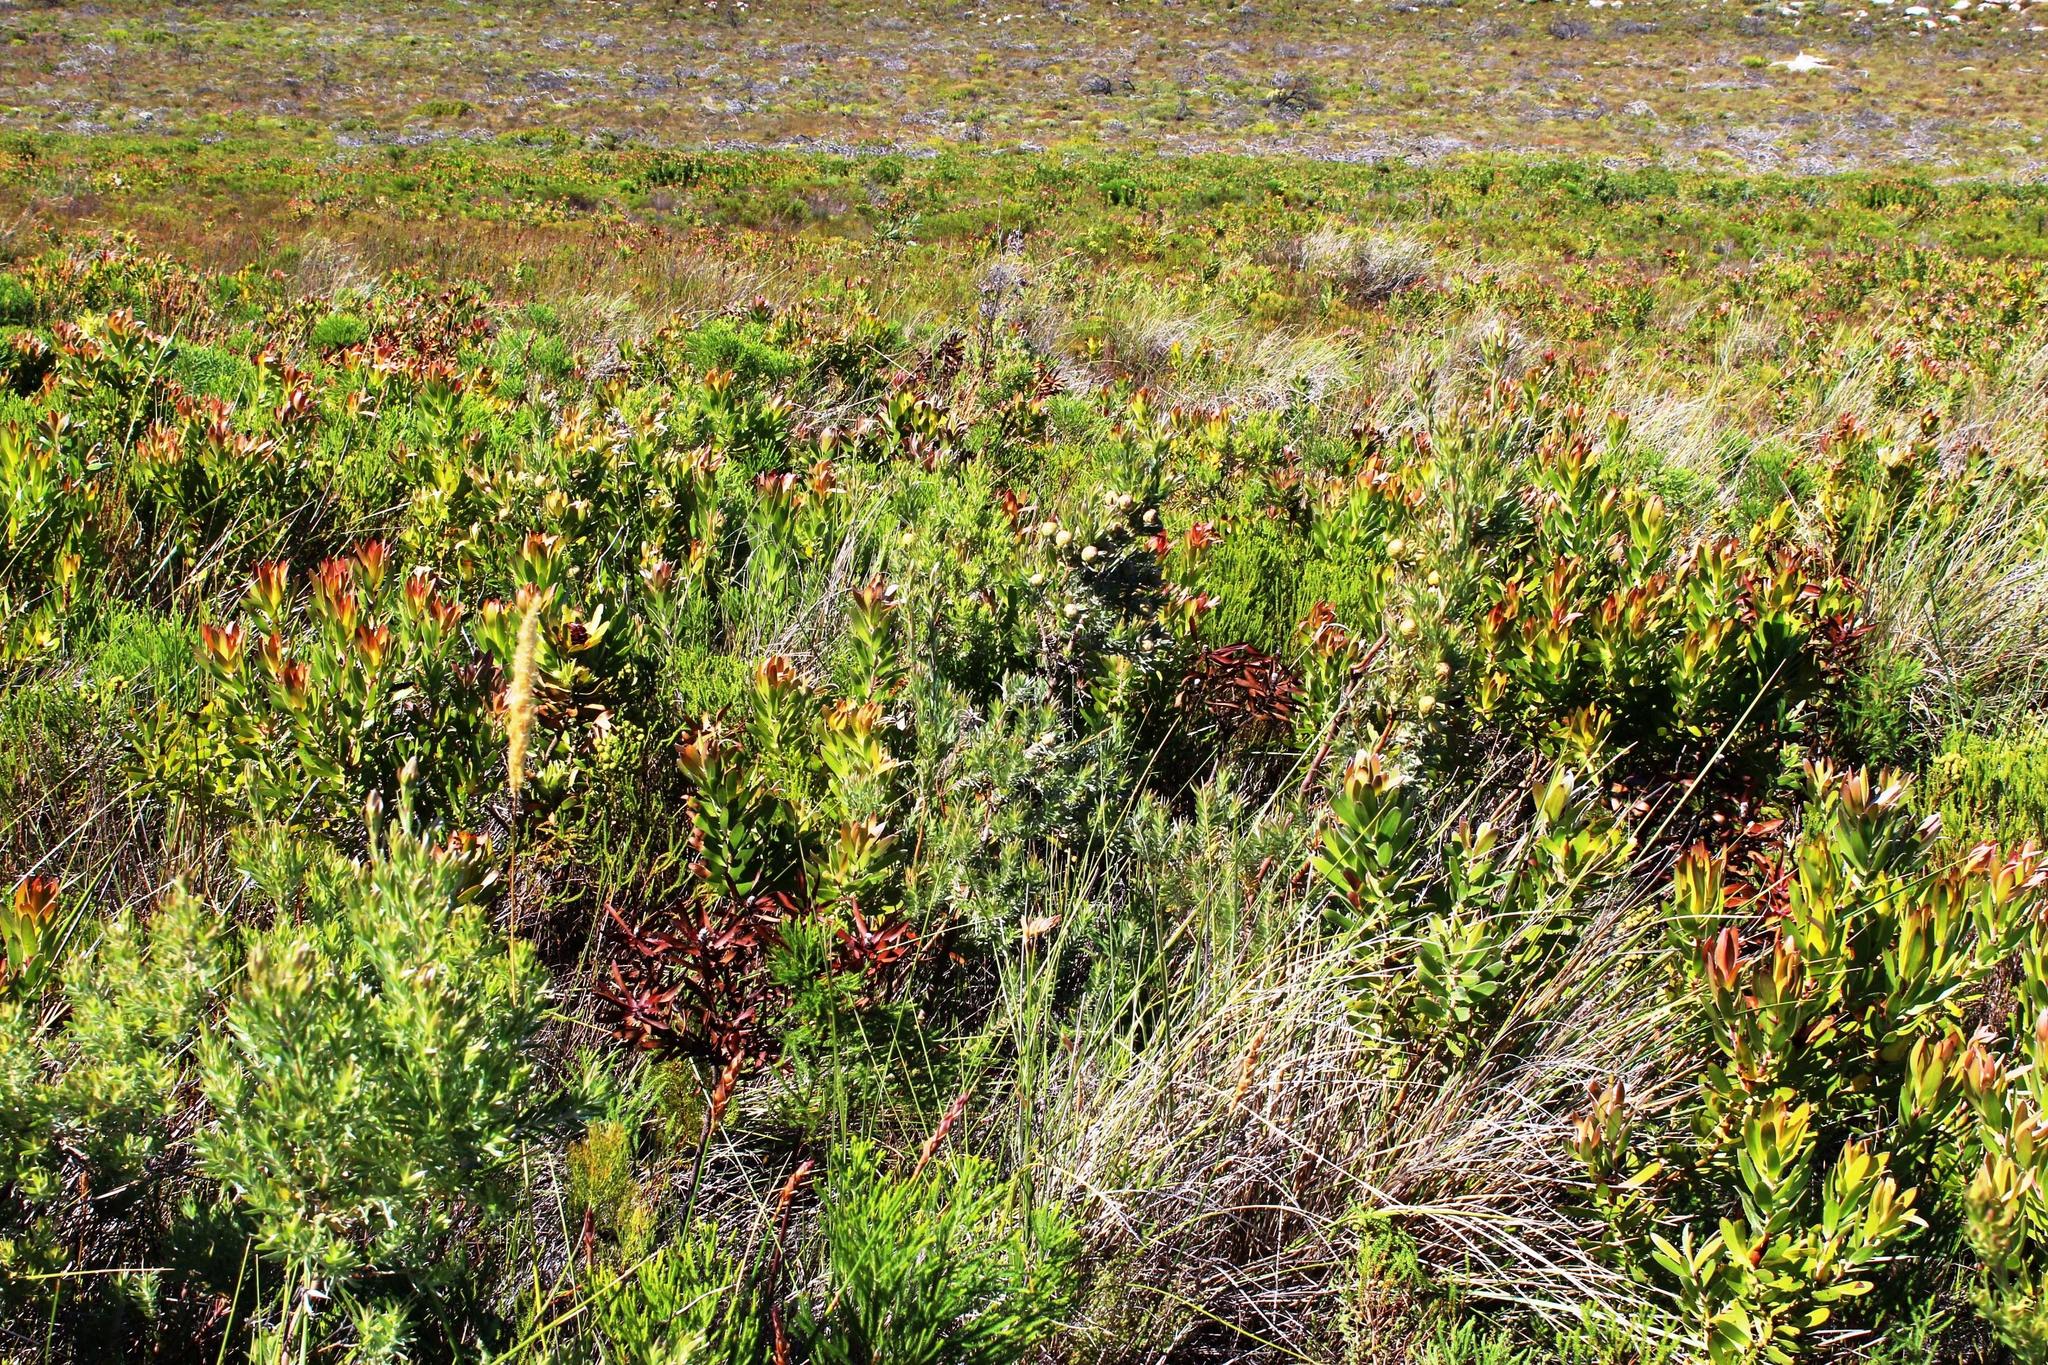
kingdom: Plantae
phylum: Tracheophyta
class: Magnoliopsida
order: Proteales
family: Proteaceae
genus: Leucadendron
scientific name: Leucadendron laureolum
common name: Golden sunshinebush
